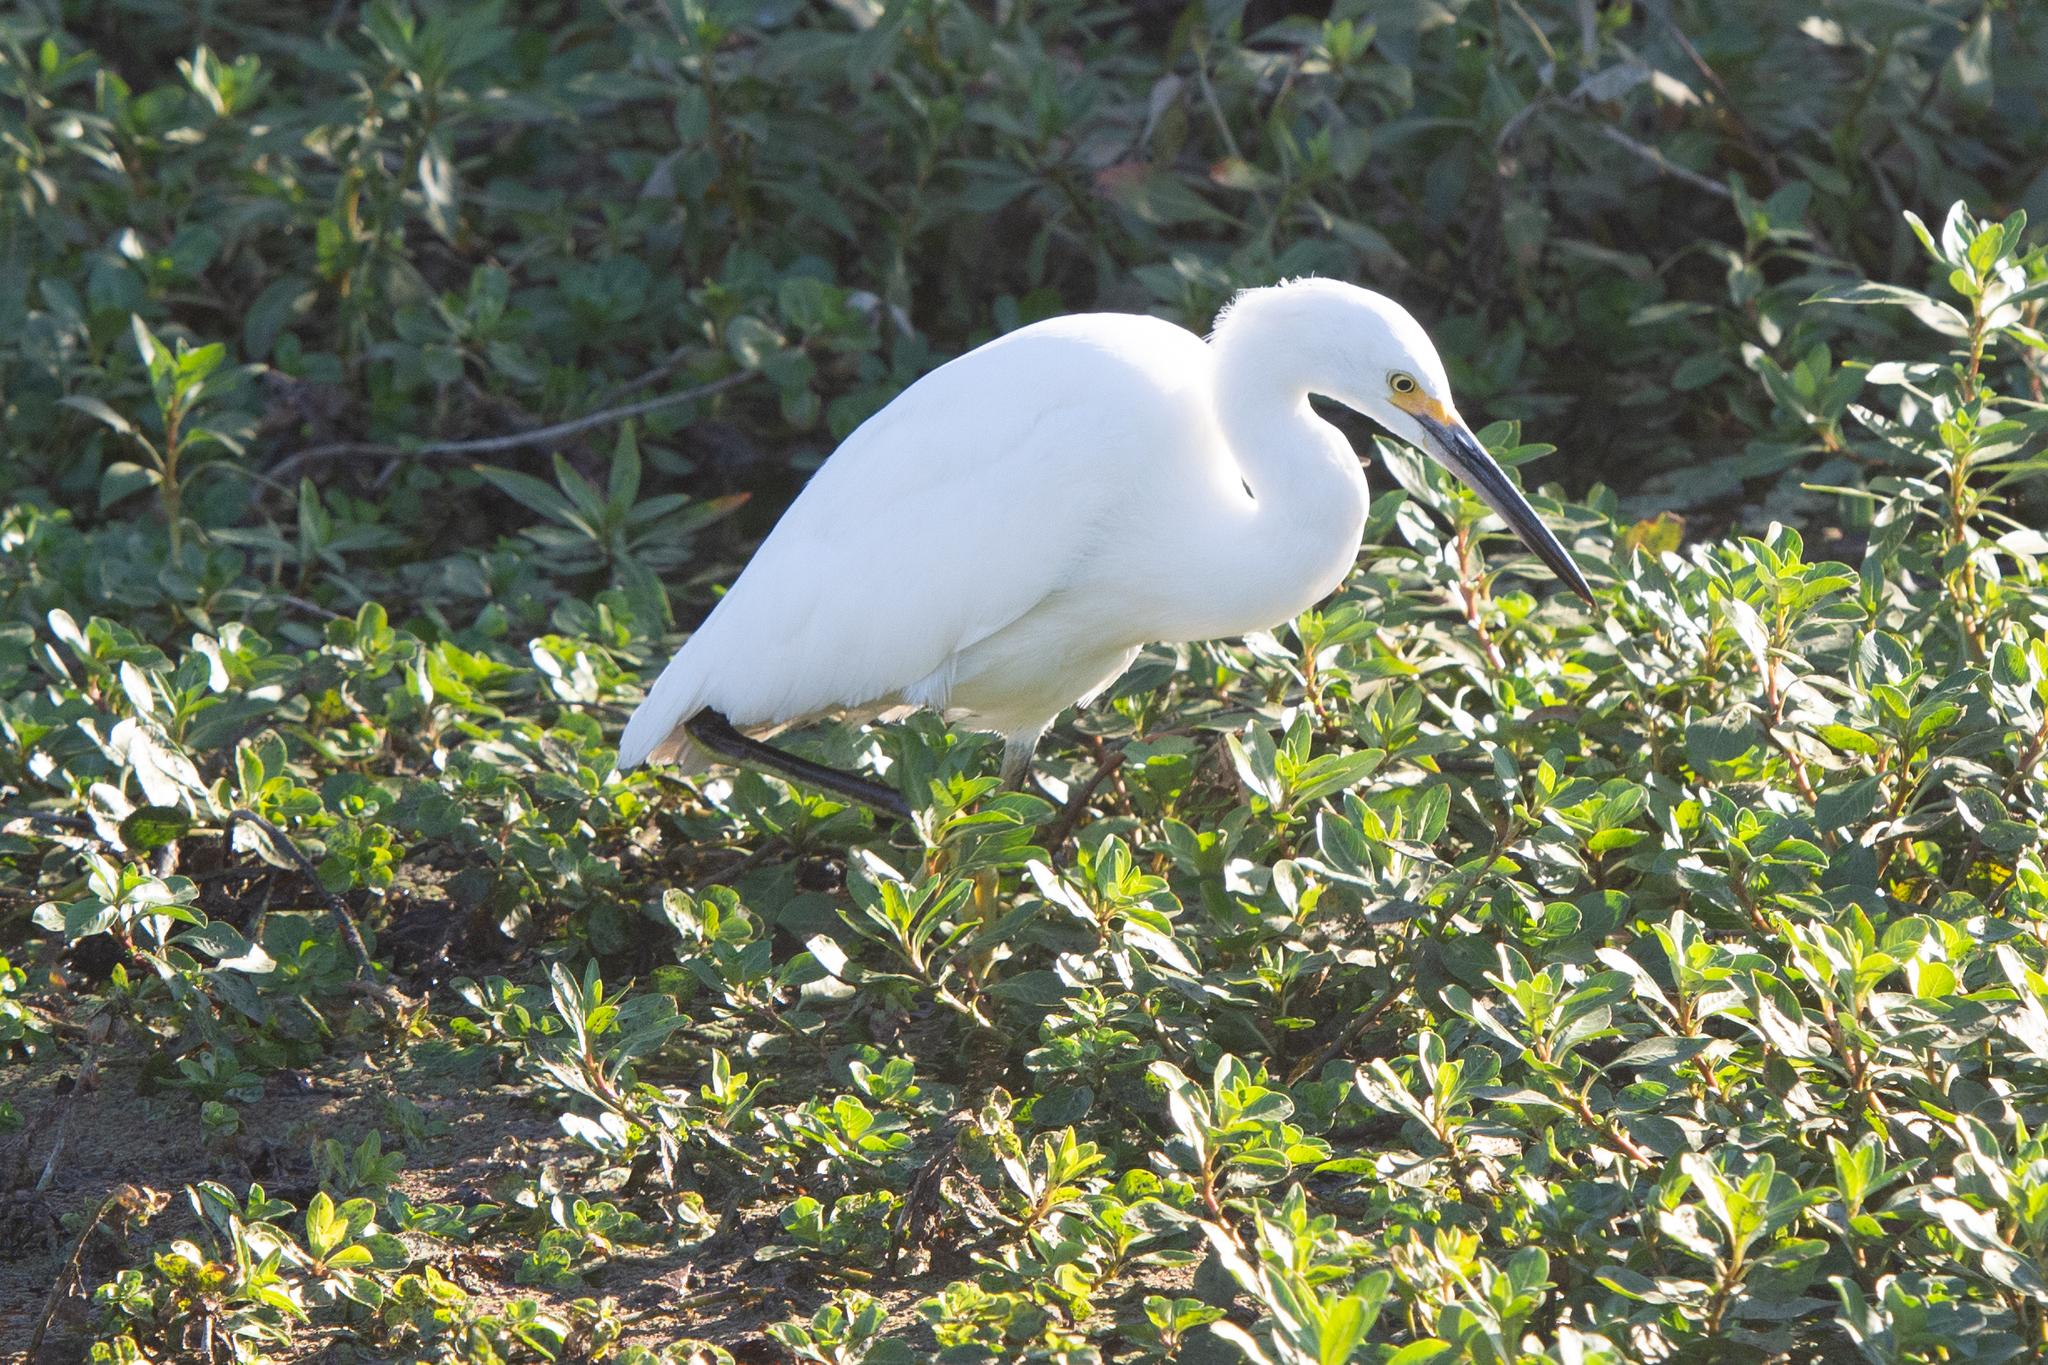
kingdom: Animalia
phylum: Chordata
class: Aves
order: Pelecaniformes
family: Ardeidae
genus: Egretta
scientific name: Egretta thula
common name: Snowy egret
